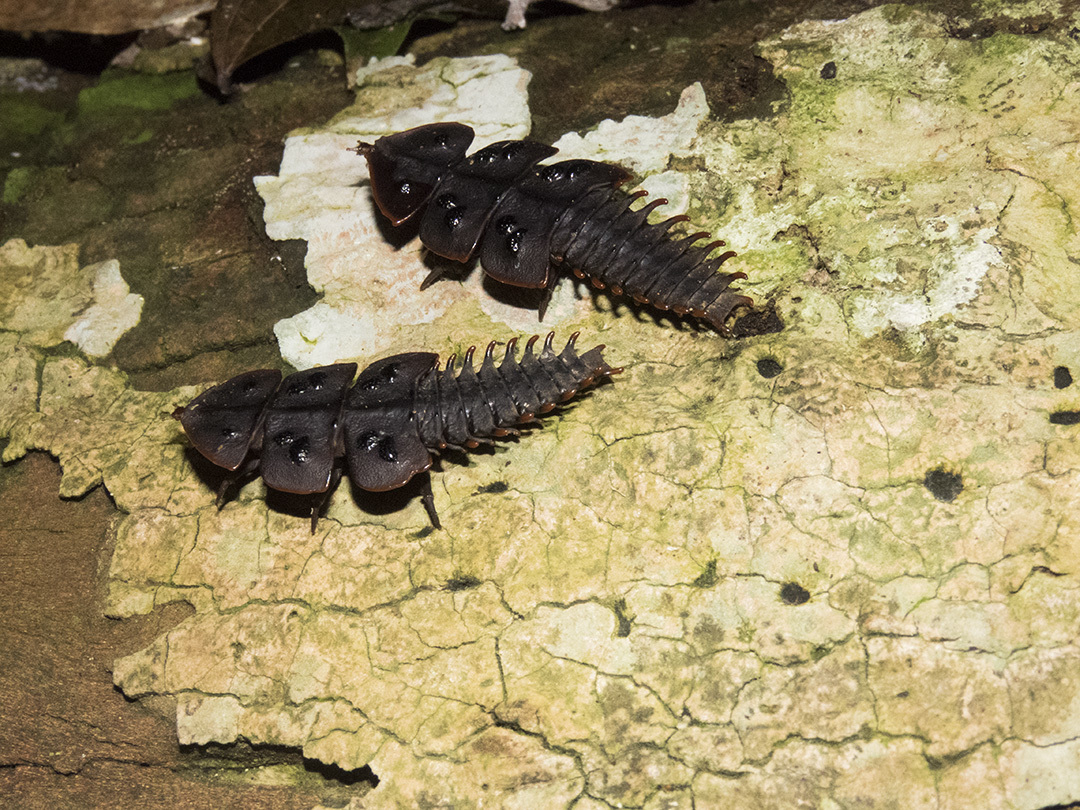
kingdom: Animalia
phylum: Arthropoda
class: Insecta
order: Coleoptera
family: Lycidae
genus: Platerodrilus
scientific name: Platerodrilus ruficollis
